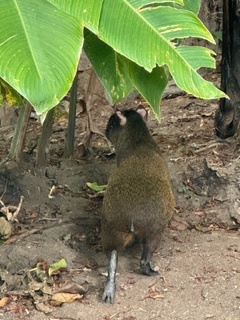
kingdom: Animalia
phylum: Chordata
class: Mammalia
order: Rodentia
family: Dasyproctidae
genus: Dasyprocta
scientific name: Dasyprocta punctata
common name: Central american agouti
